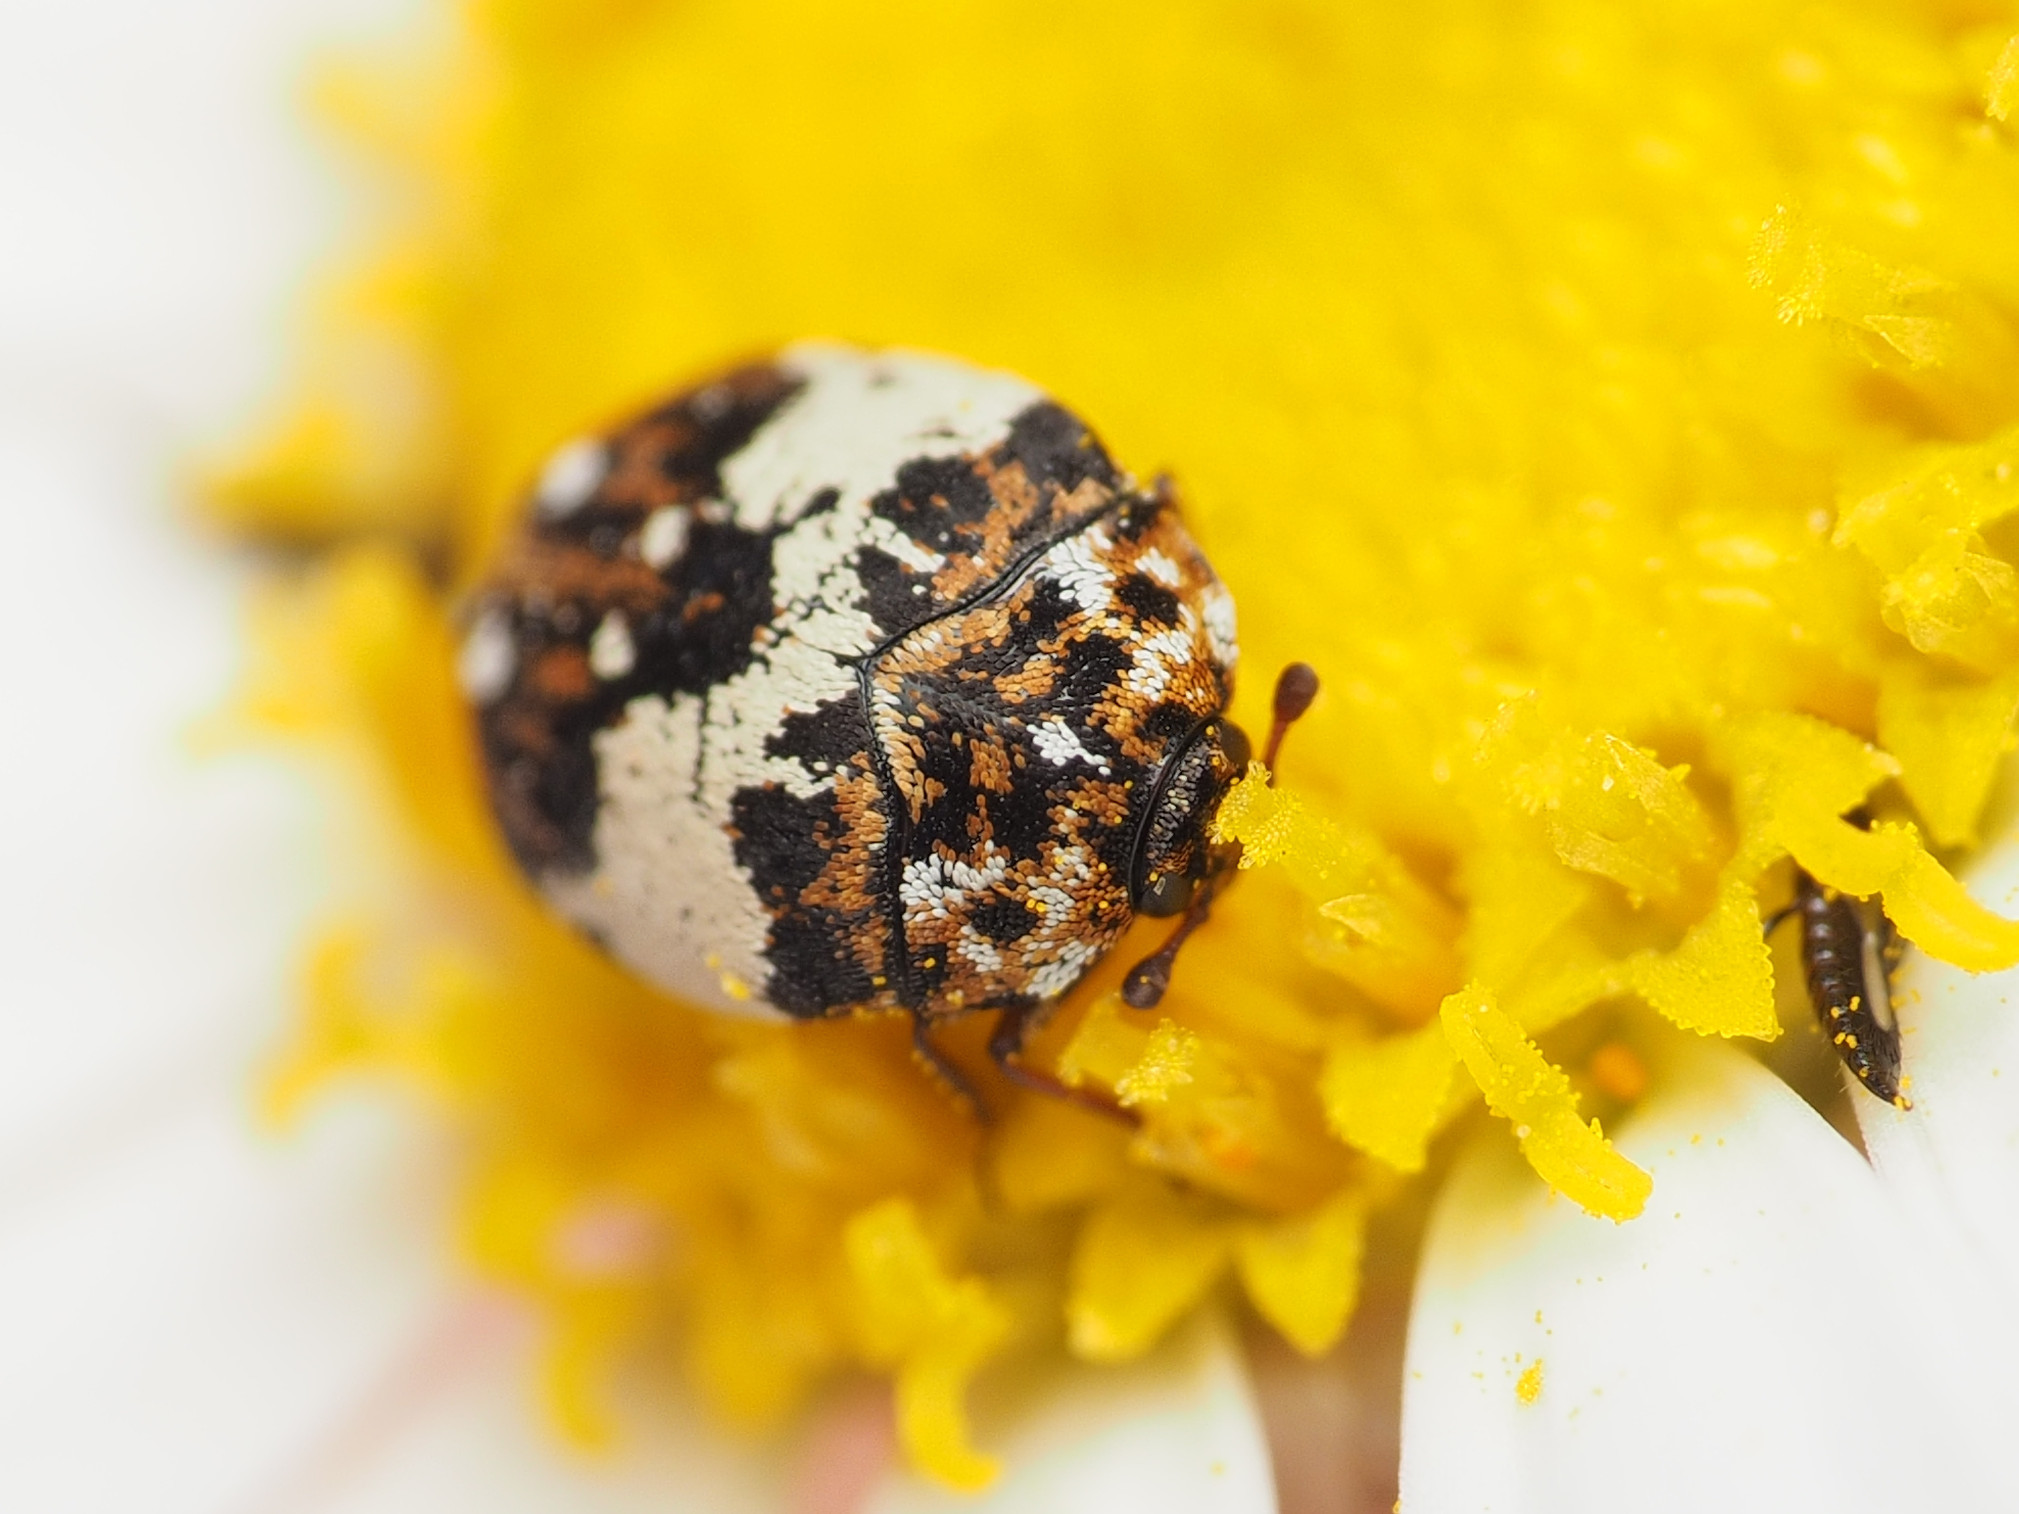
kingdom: Animalia
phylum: Arthropoda
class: Insecta
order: Coleoptera
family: Dermestidae
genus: Anthrenus
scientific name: Anthrenus isabellinus
